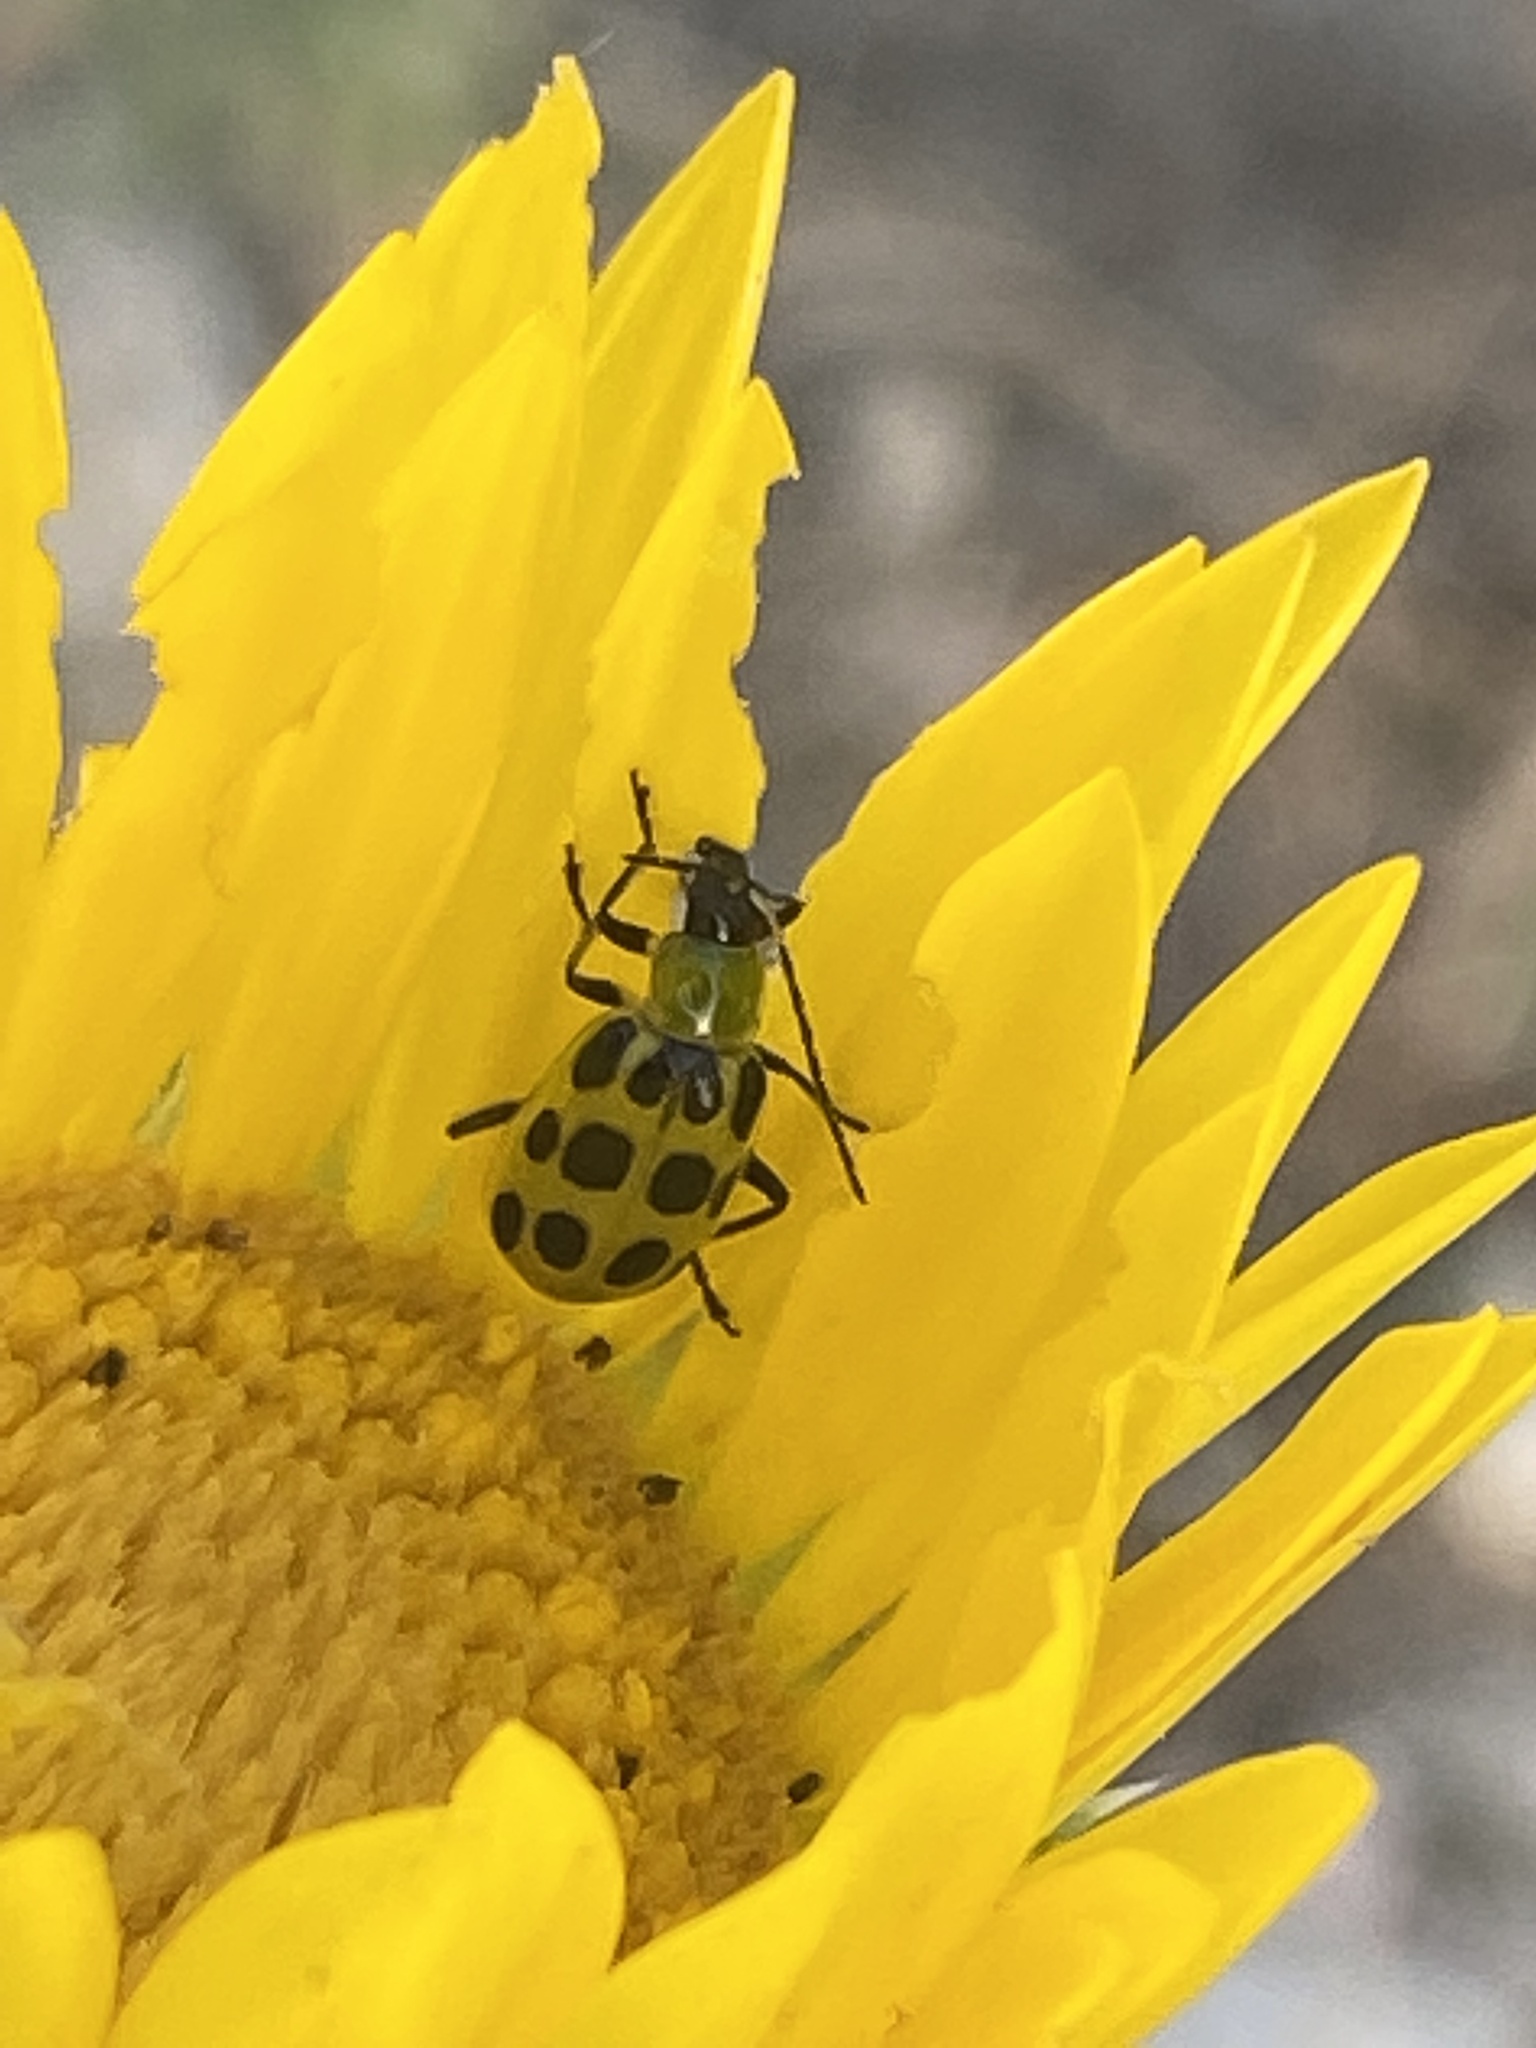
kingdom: Animalia
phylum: Arthropoda
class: Insecta
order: Coleoptera
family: Chrysomelidae
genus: Diabrotica
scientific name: Diabrotica undecimpunctata
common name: Spotted cucumber beetle
